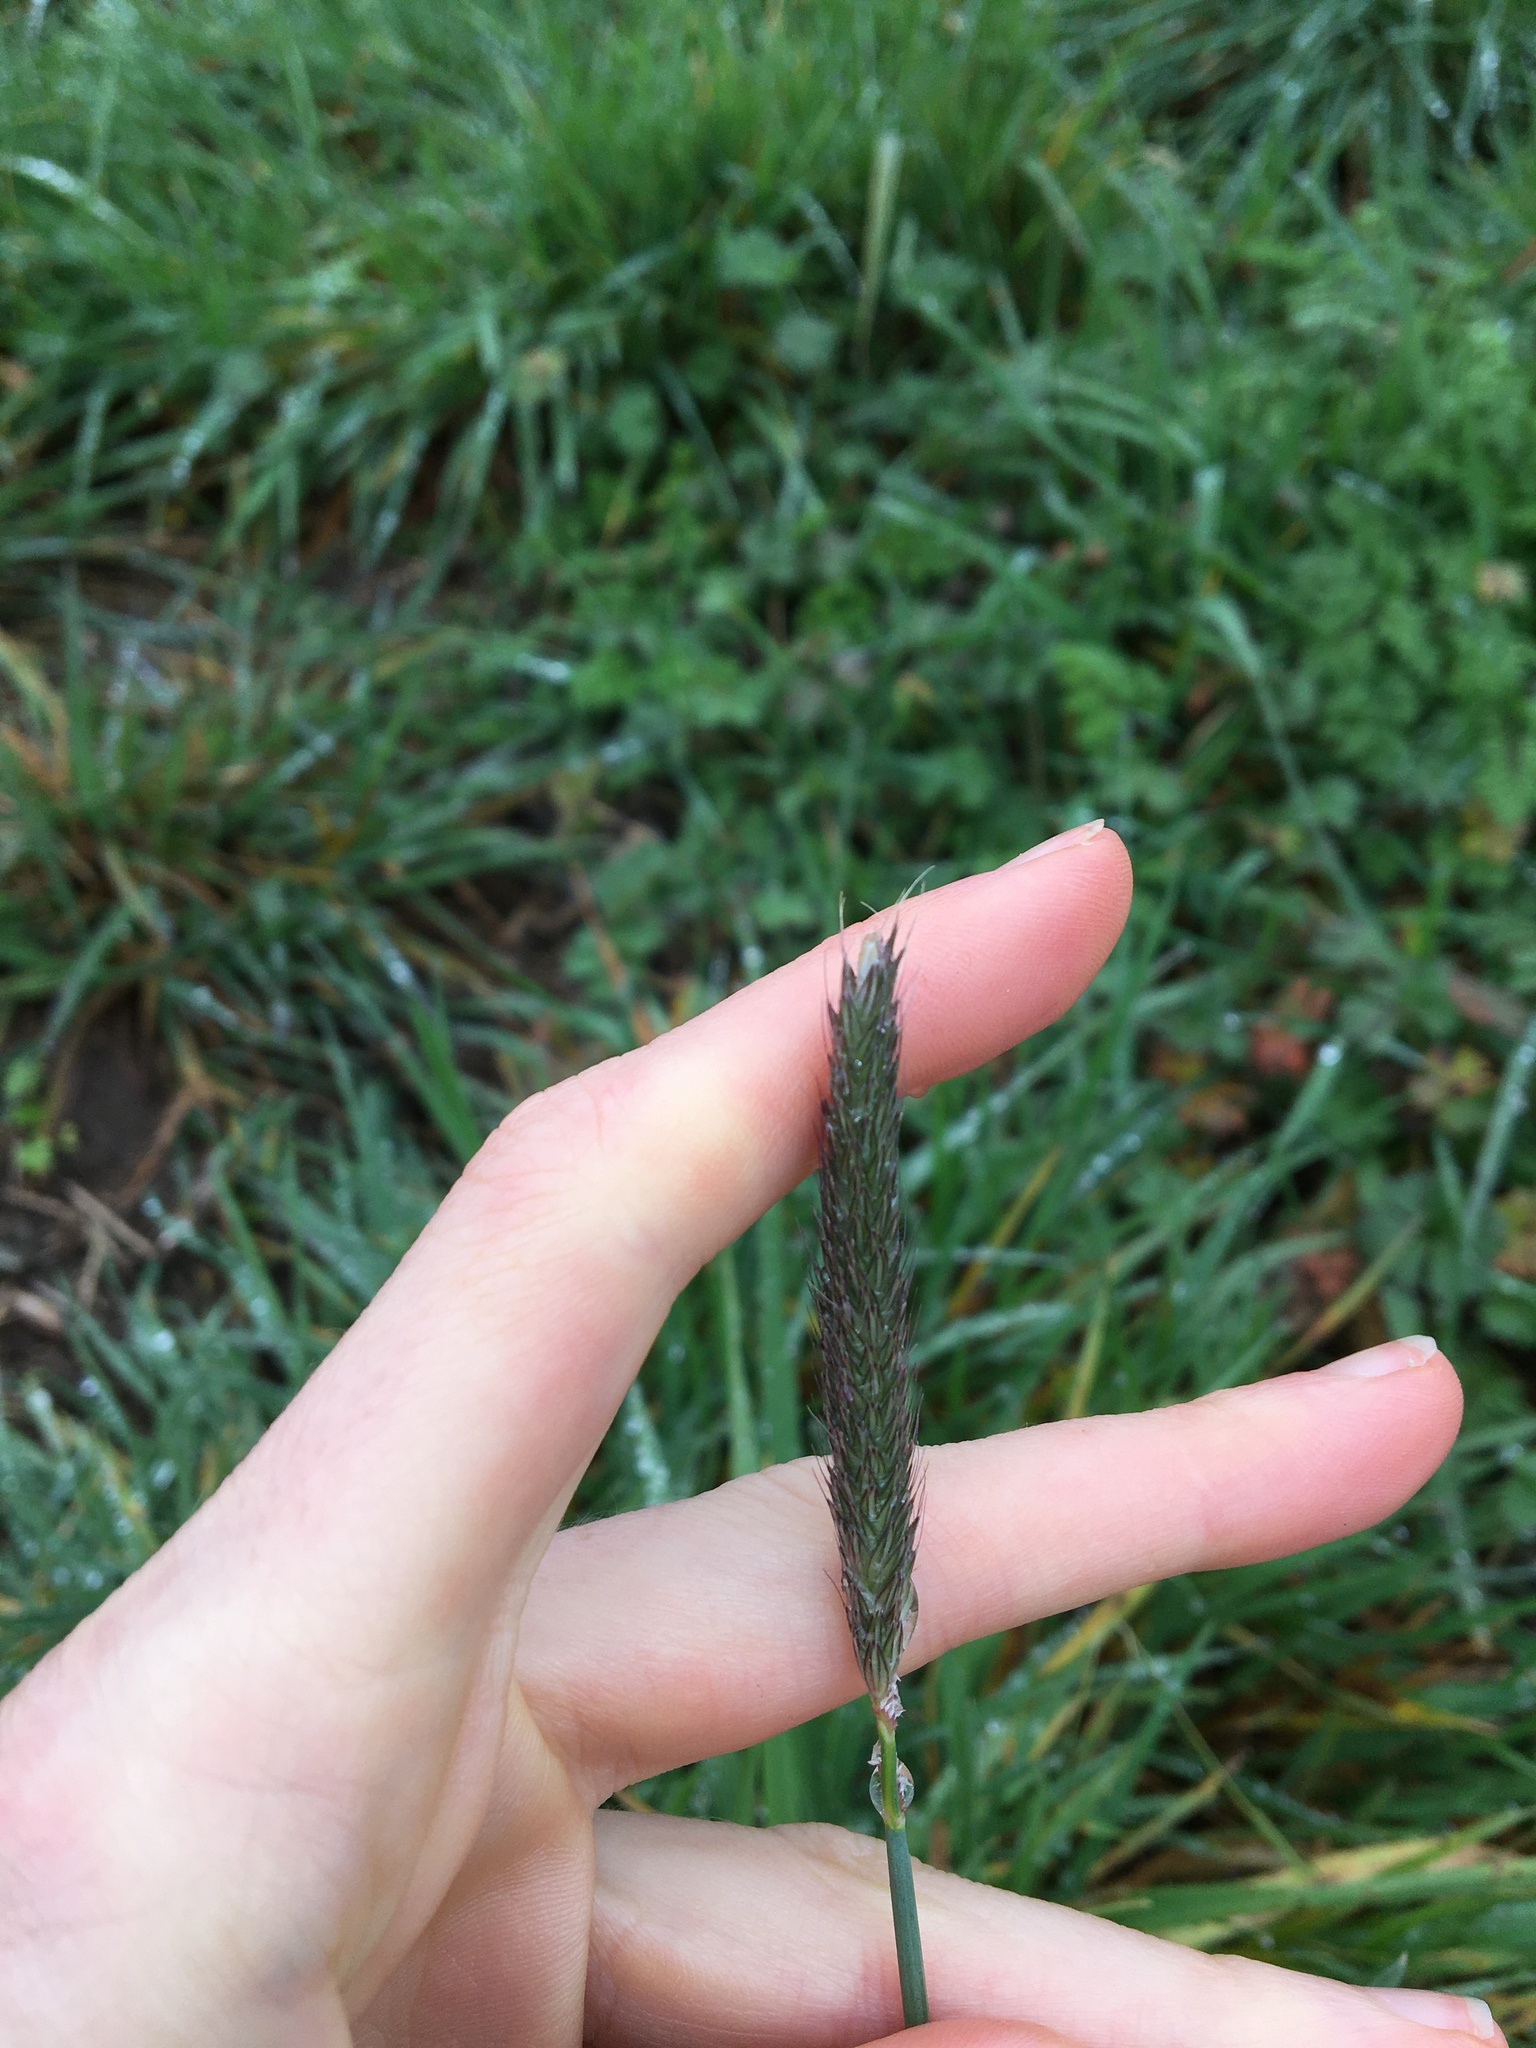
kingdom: Plantae
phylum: Tracheophyta
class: Liliopsida
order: Poales
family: Poaceae
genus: Alopecurus
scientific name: Alopecurus pratensis
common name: Meadow foxtail
